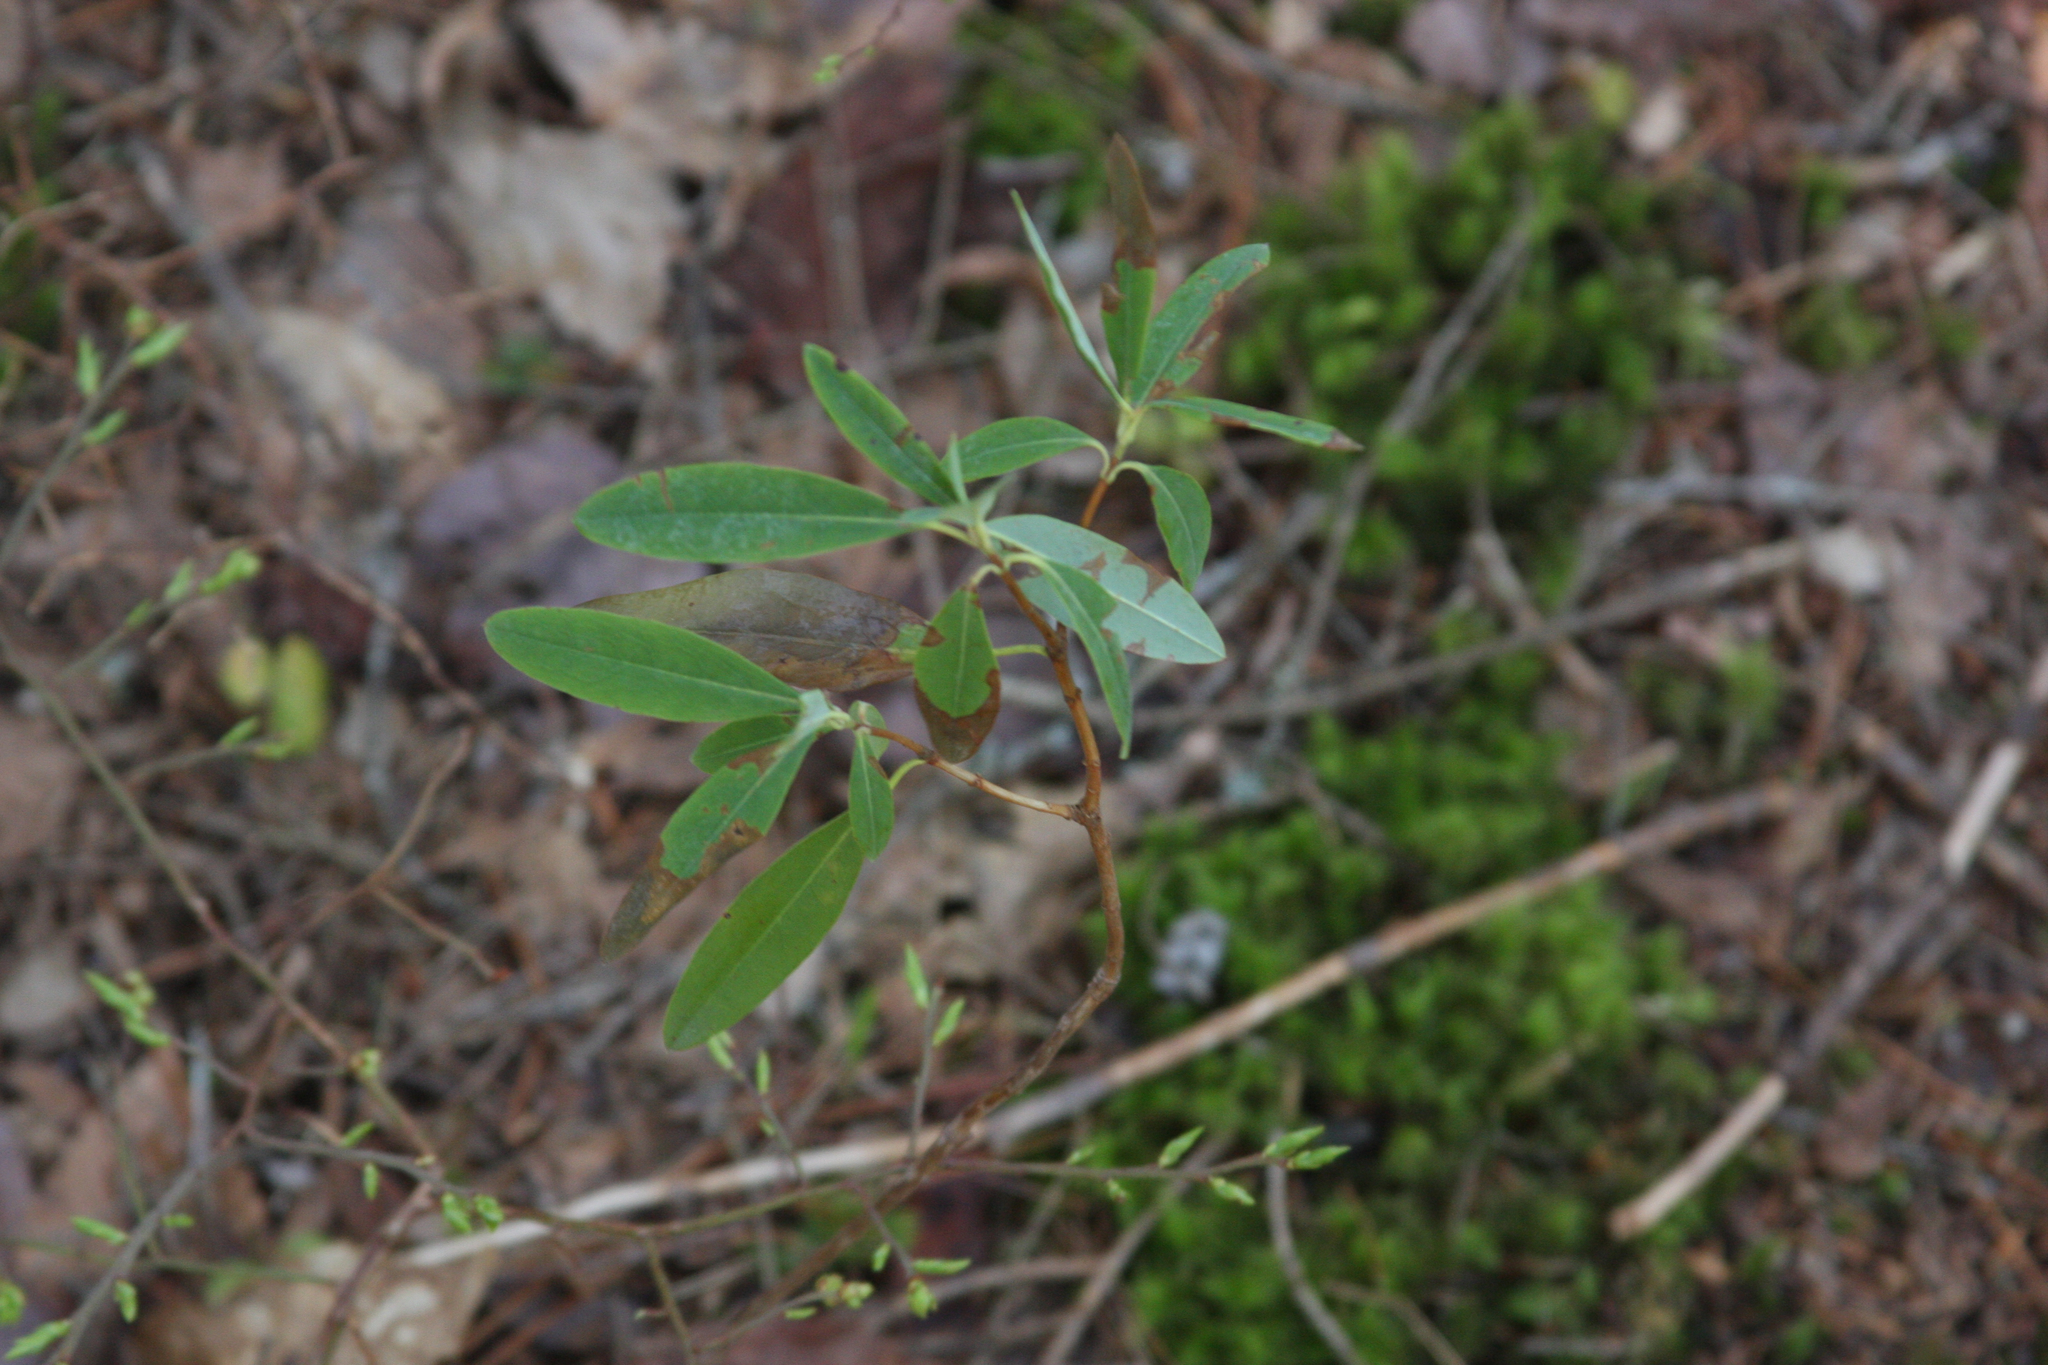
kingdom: Plantae
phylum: Tracheophyta
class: Magnoliopsida
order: Ericales
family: Ericaceae
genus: Kalmia
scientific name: Kalmia angustifolia
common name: Sheep-laurel
